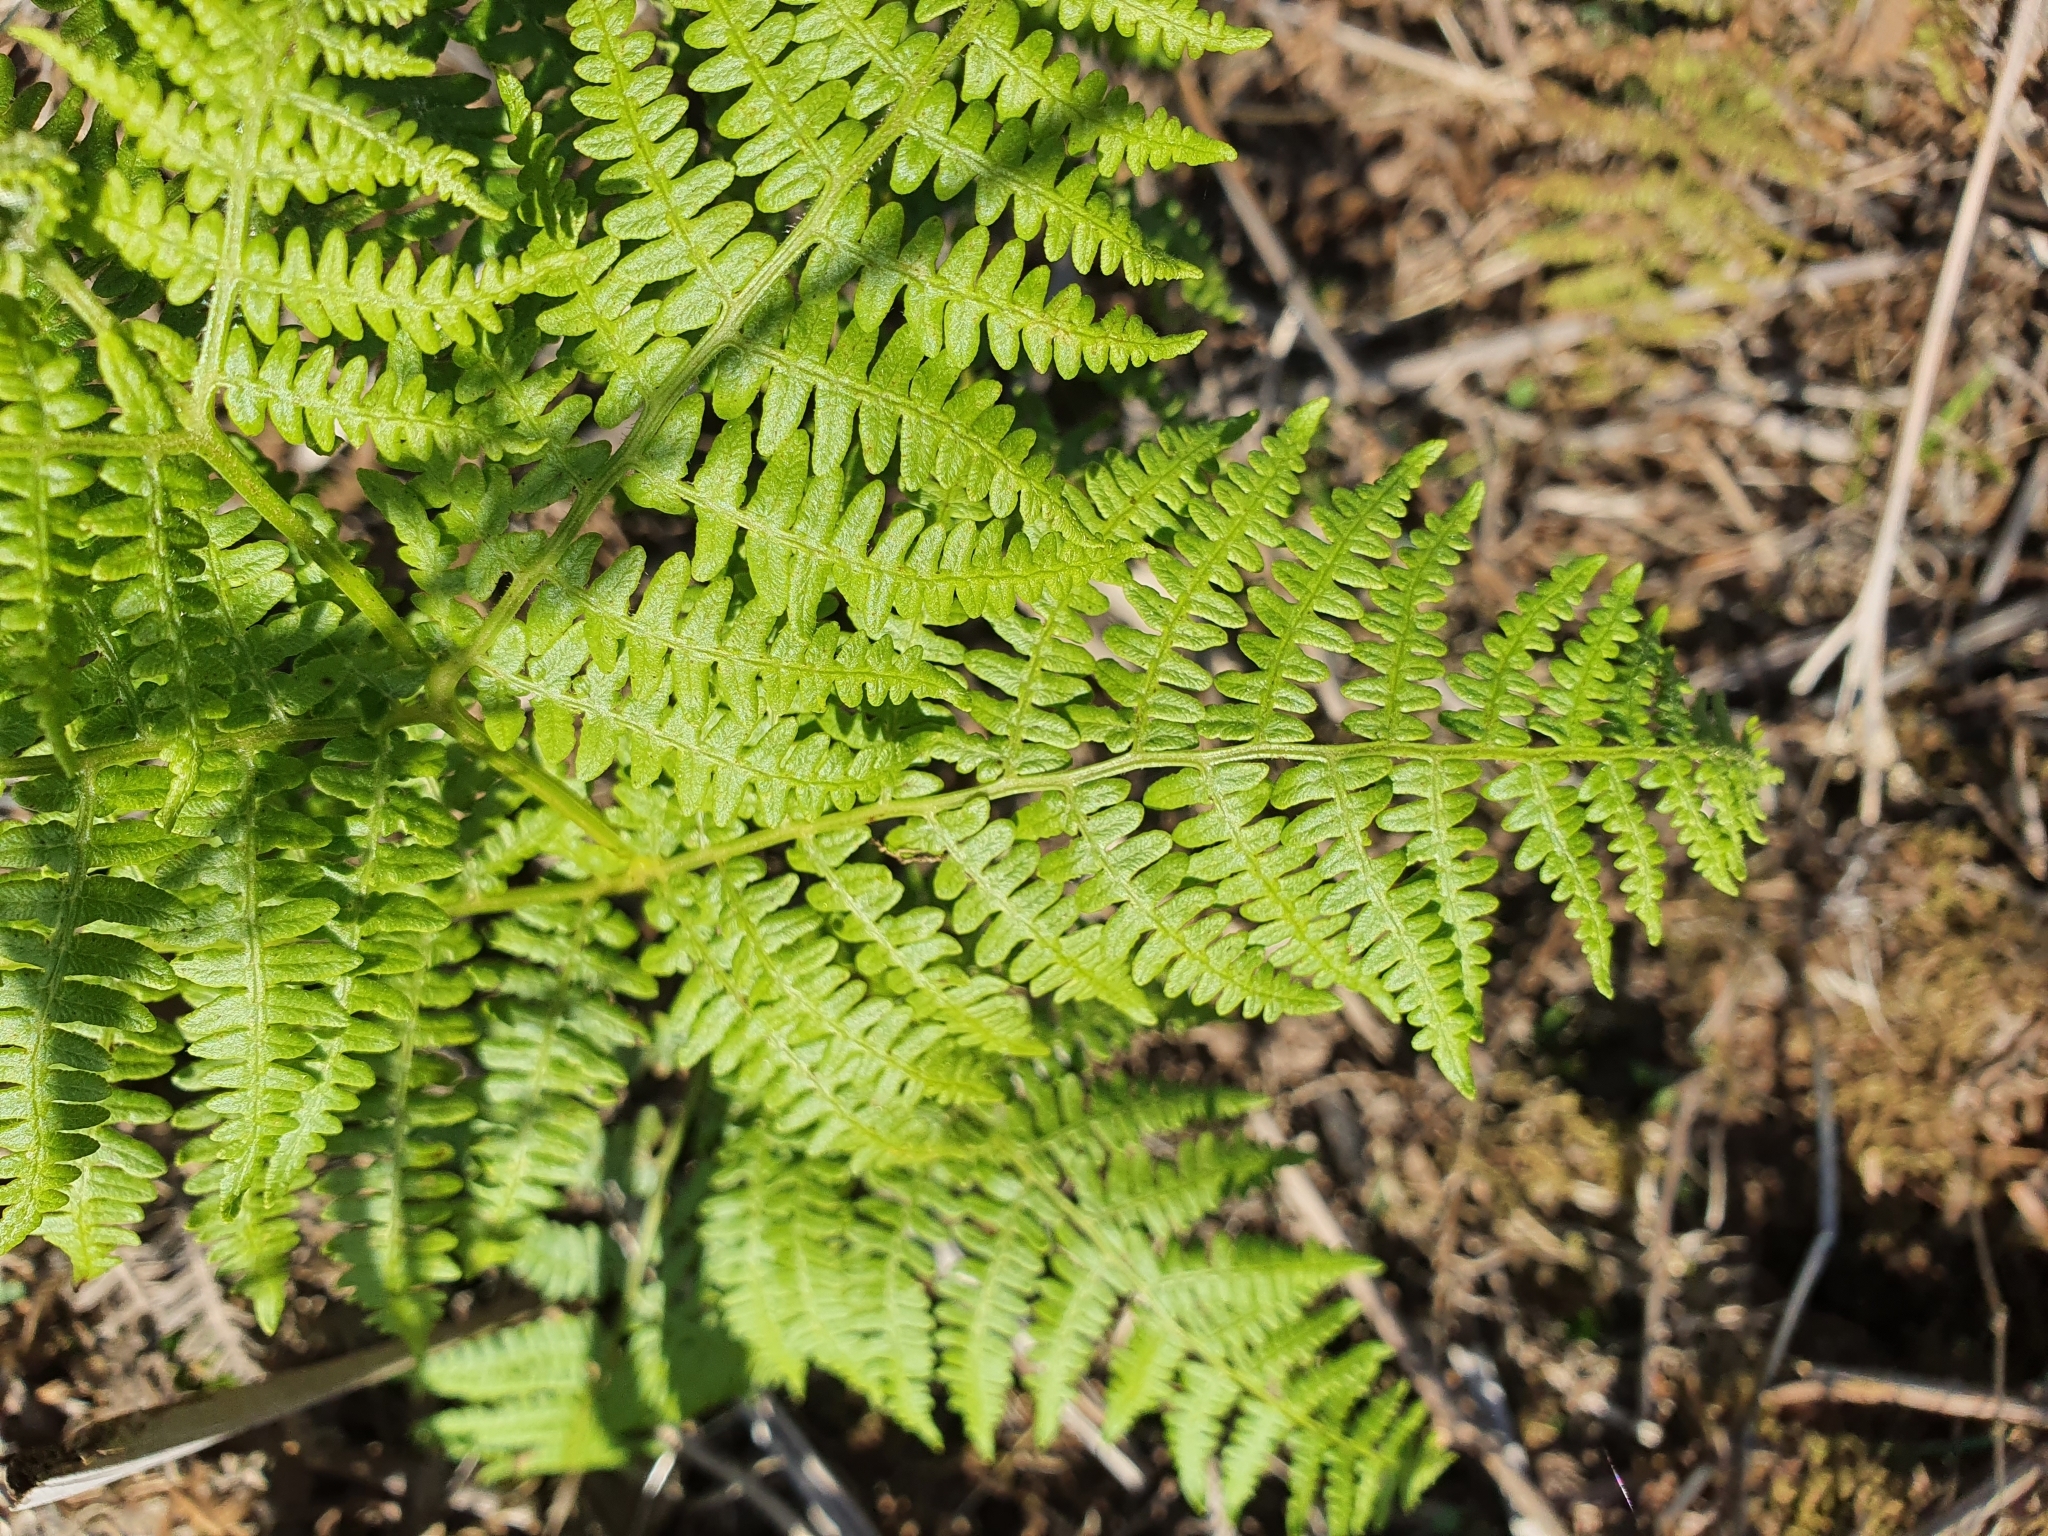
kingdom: Plantae
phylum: Tracheophyta
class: Polypodiopsida
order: Polypodiales
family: Dennstaedtiaceae
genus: Pteridium
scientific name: Pteridium aquilinum
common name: Bracken
